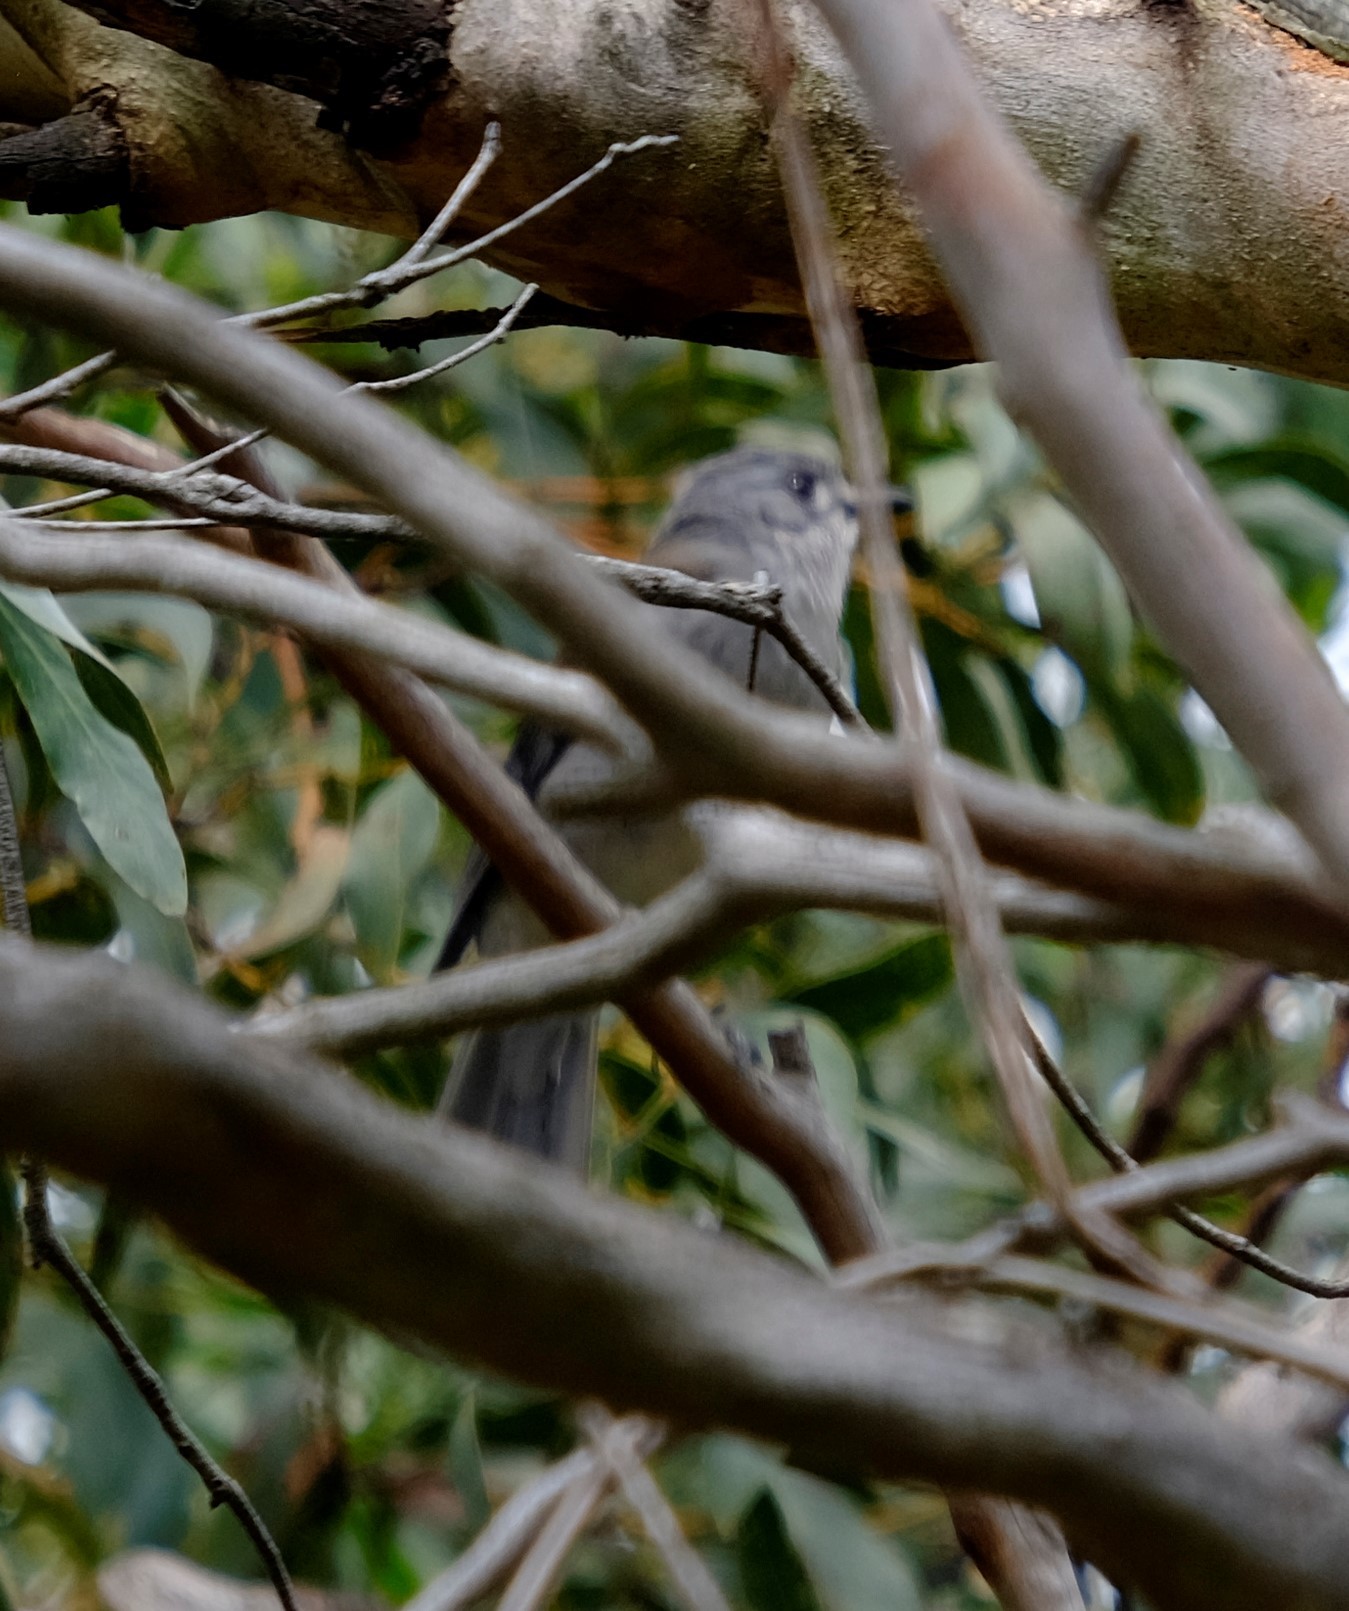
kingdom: Animalia
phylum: Chordata
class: Aves
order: Passeriformes
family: Pachycephalidae
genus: Colluricincla
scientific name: Colluricincla harmonica
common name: Grey shrikethrush
